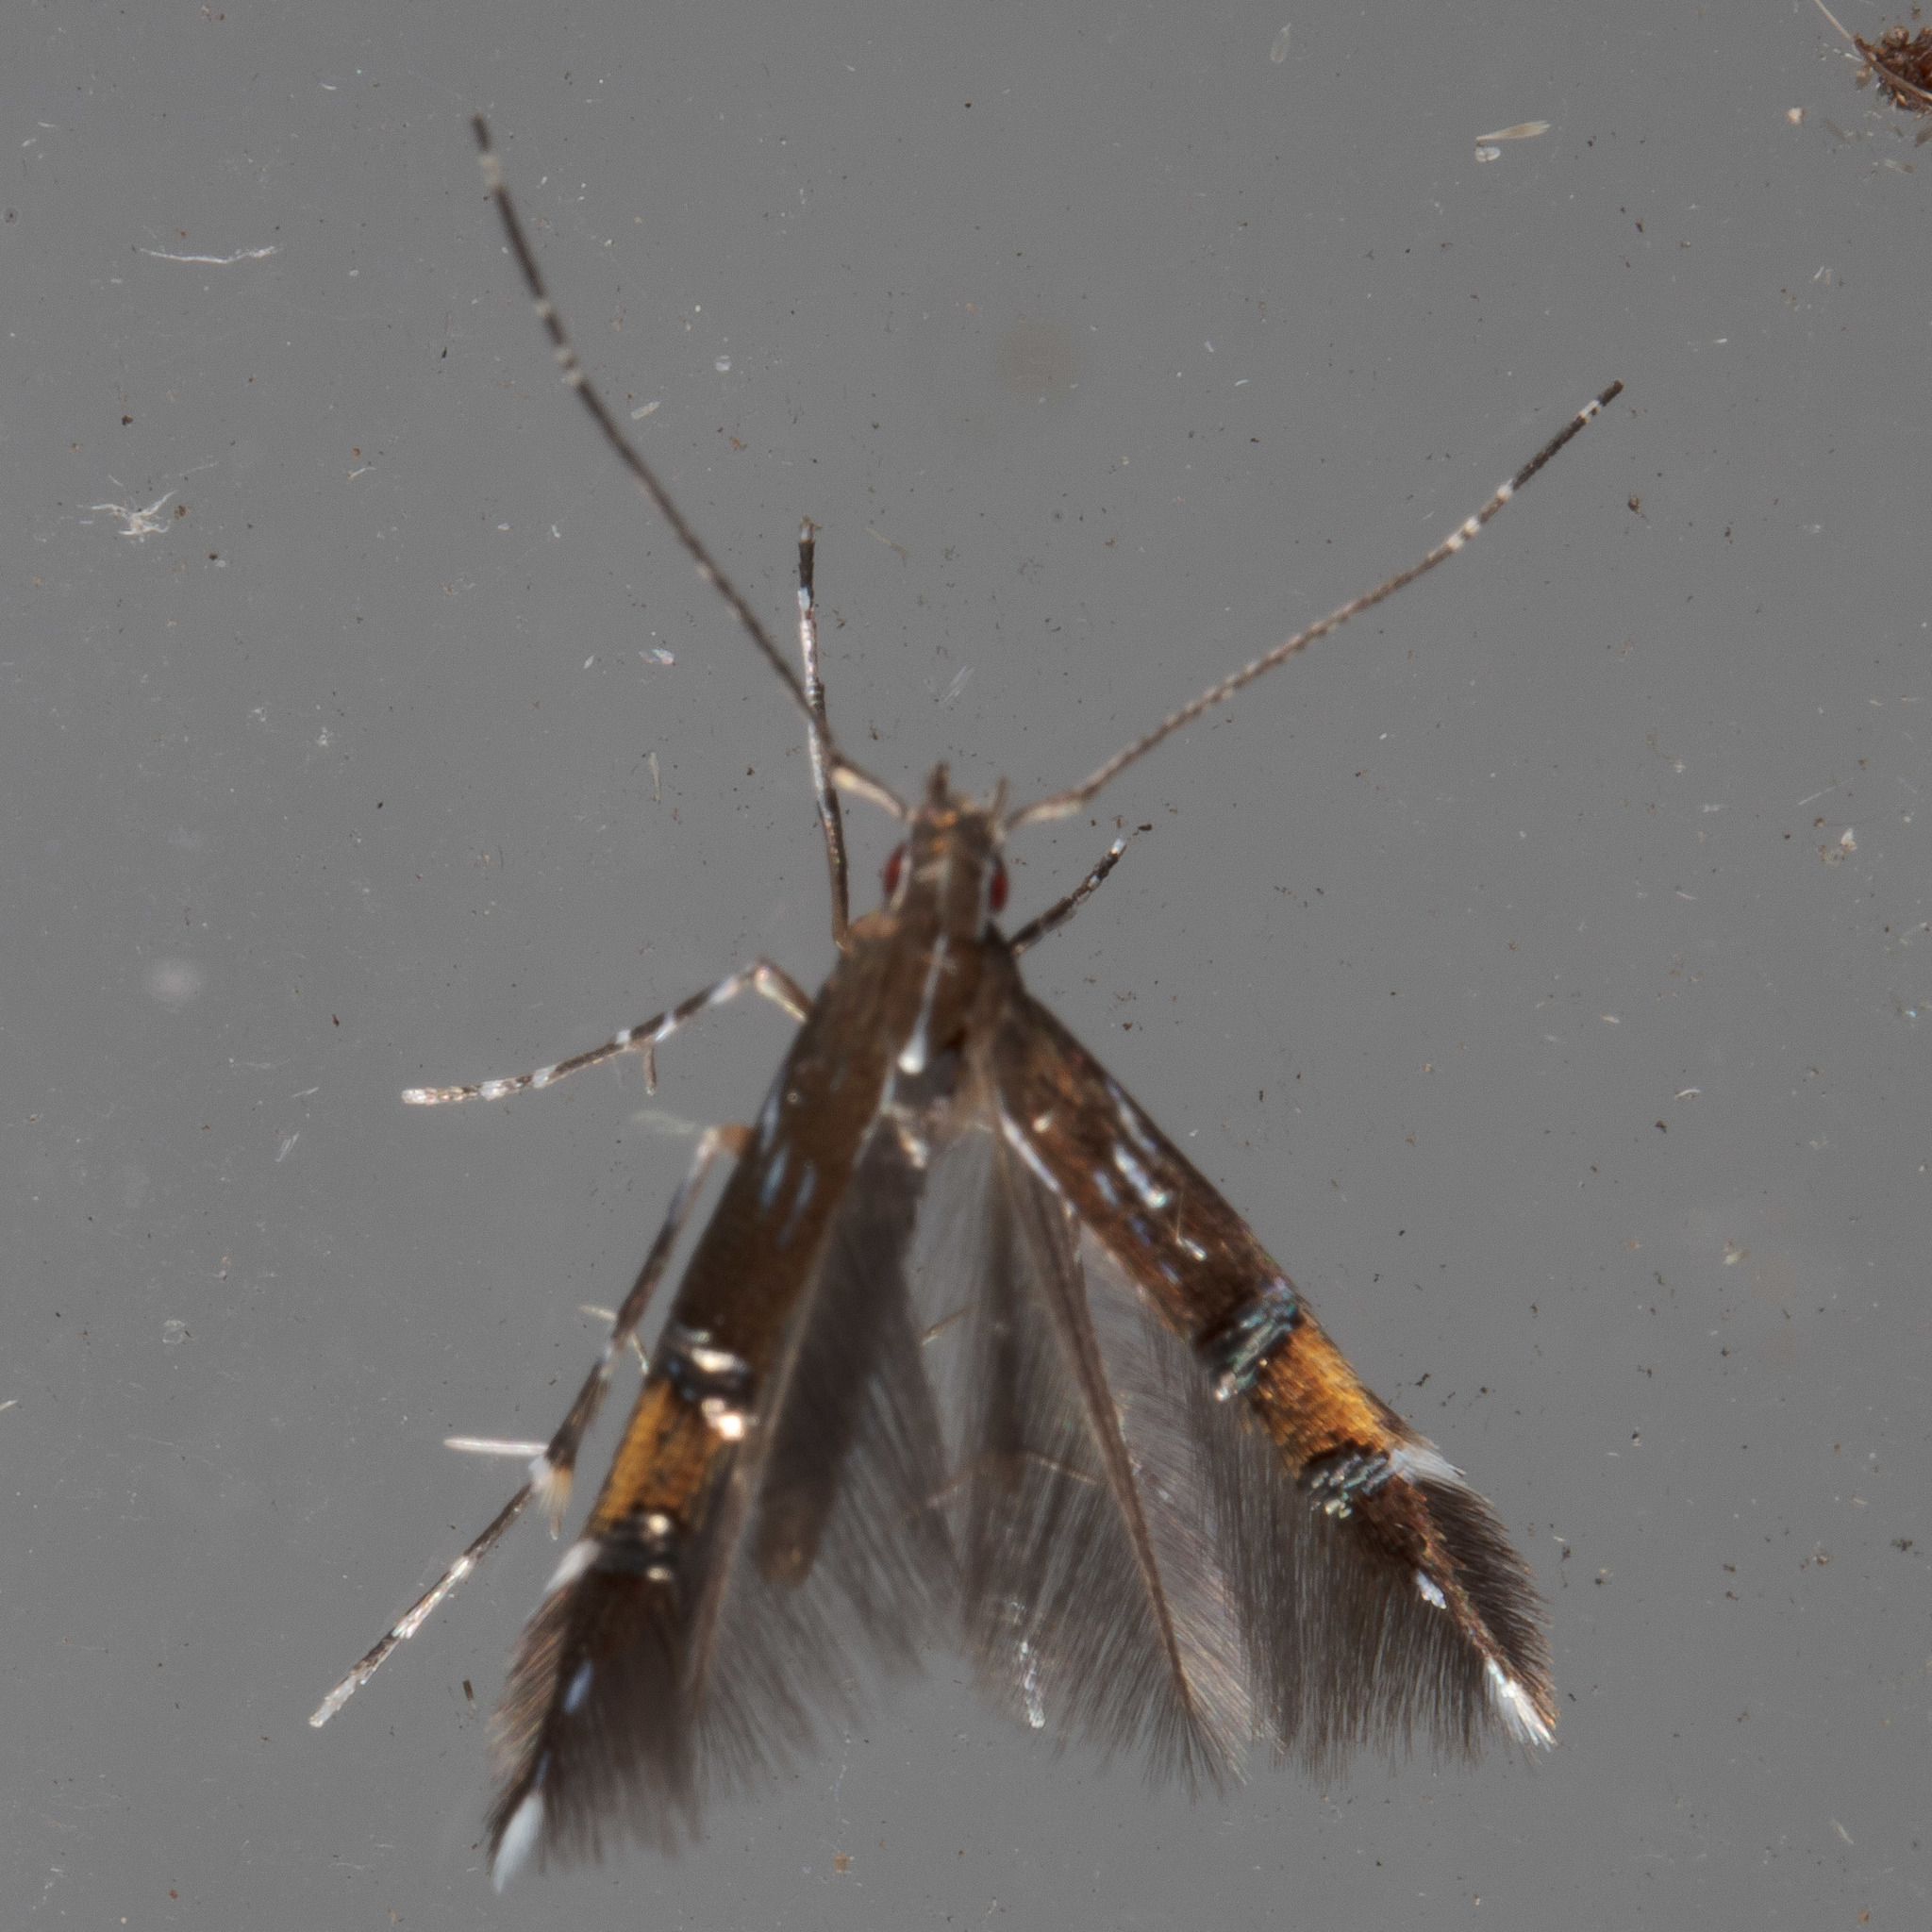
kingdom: Animalia
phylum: Arthropoda
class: Insecta
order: Lepidoptera
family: Cosmopterigidae
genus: Cosmopterix
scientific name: Cosmopterix pulchrimella
